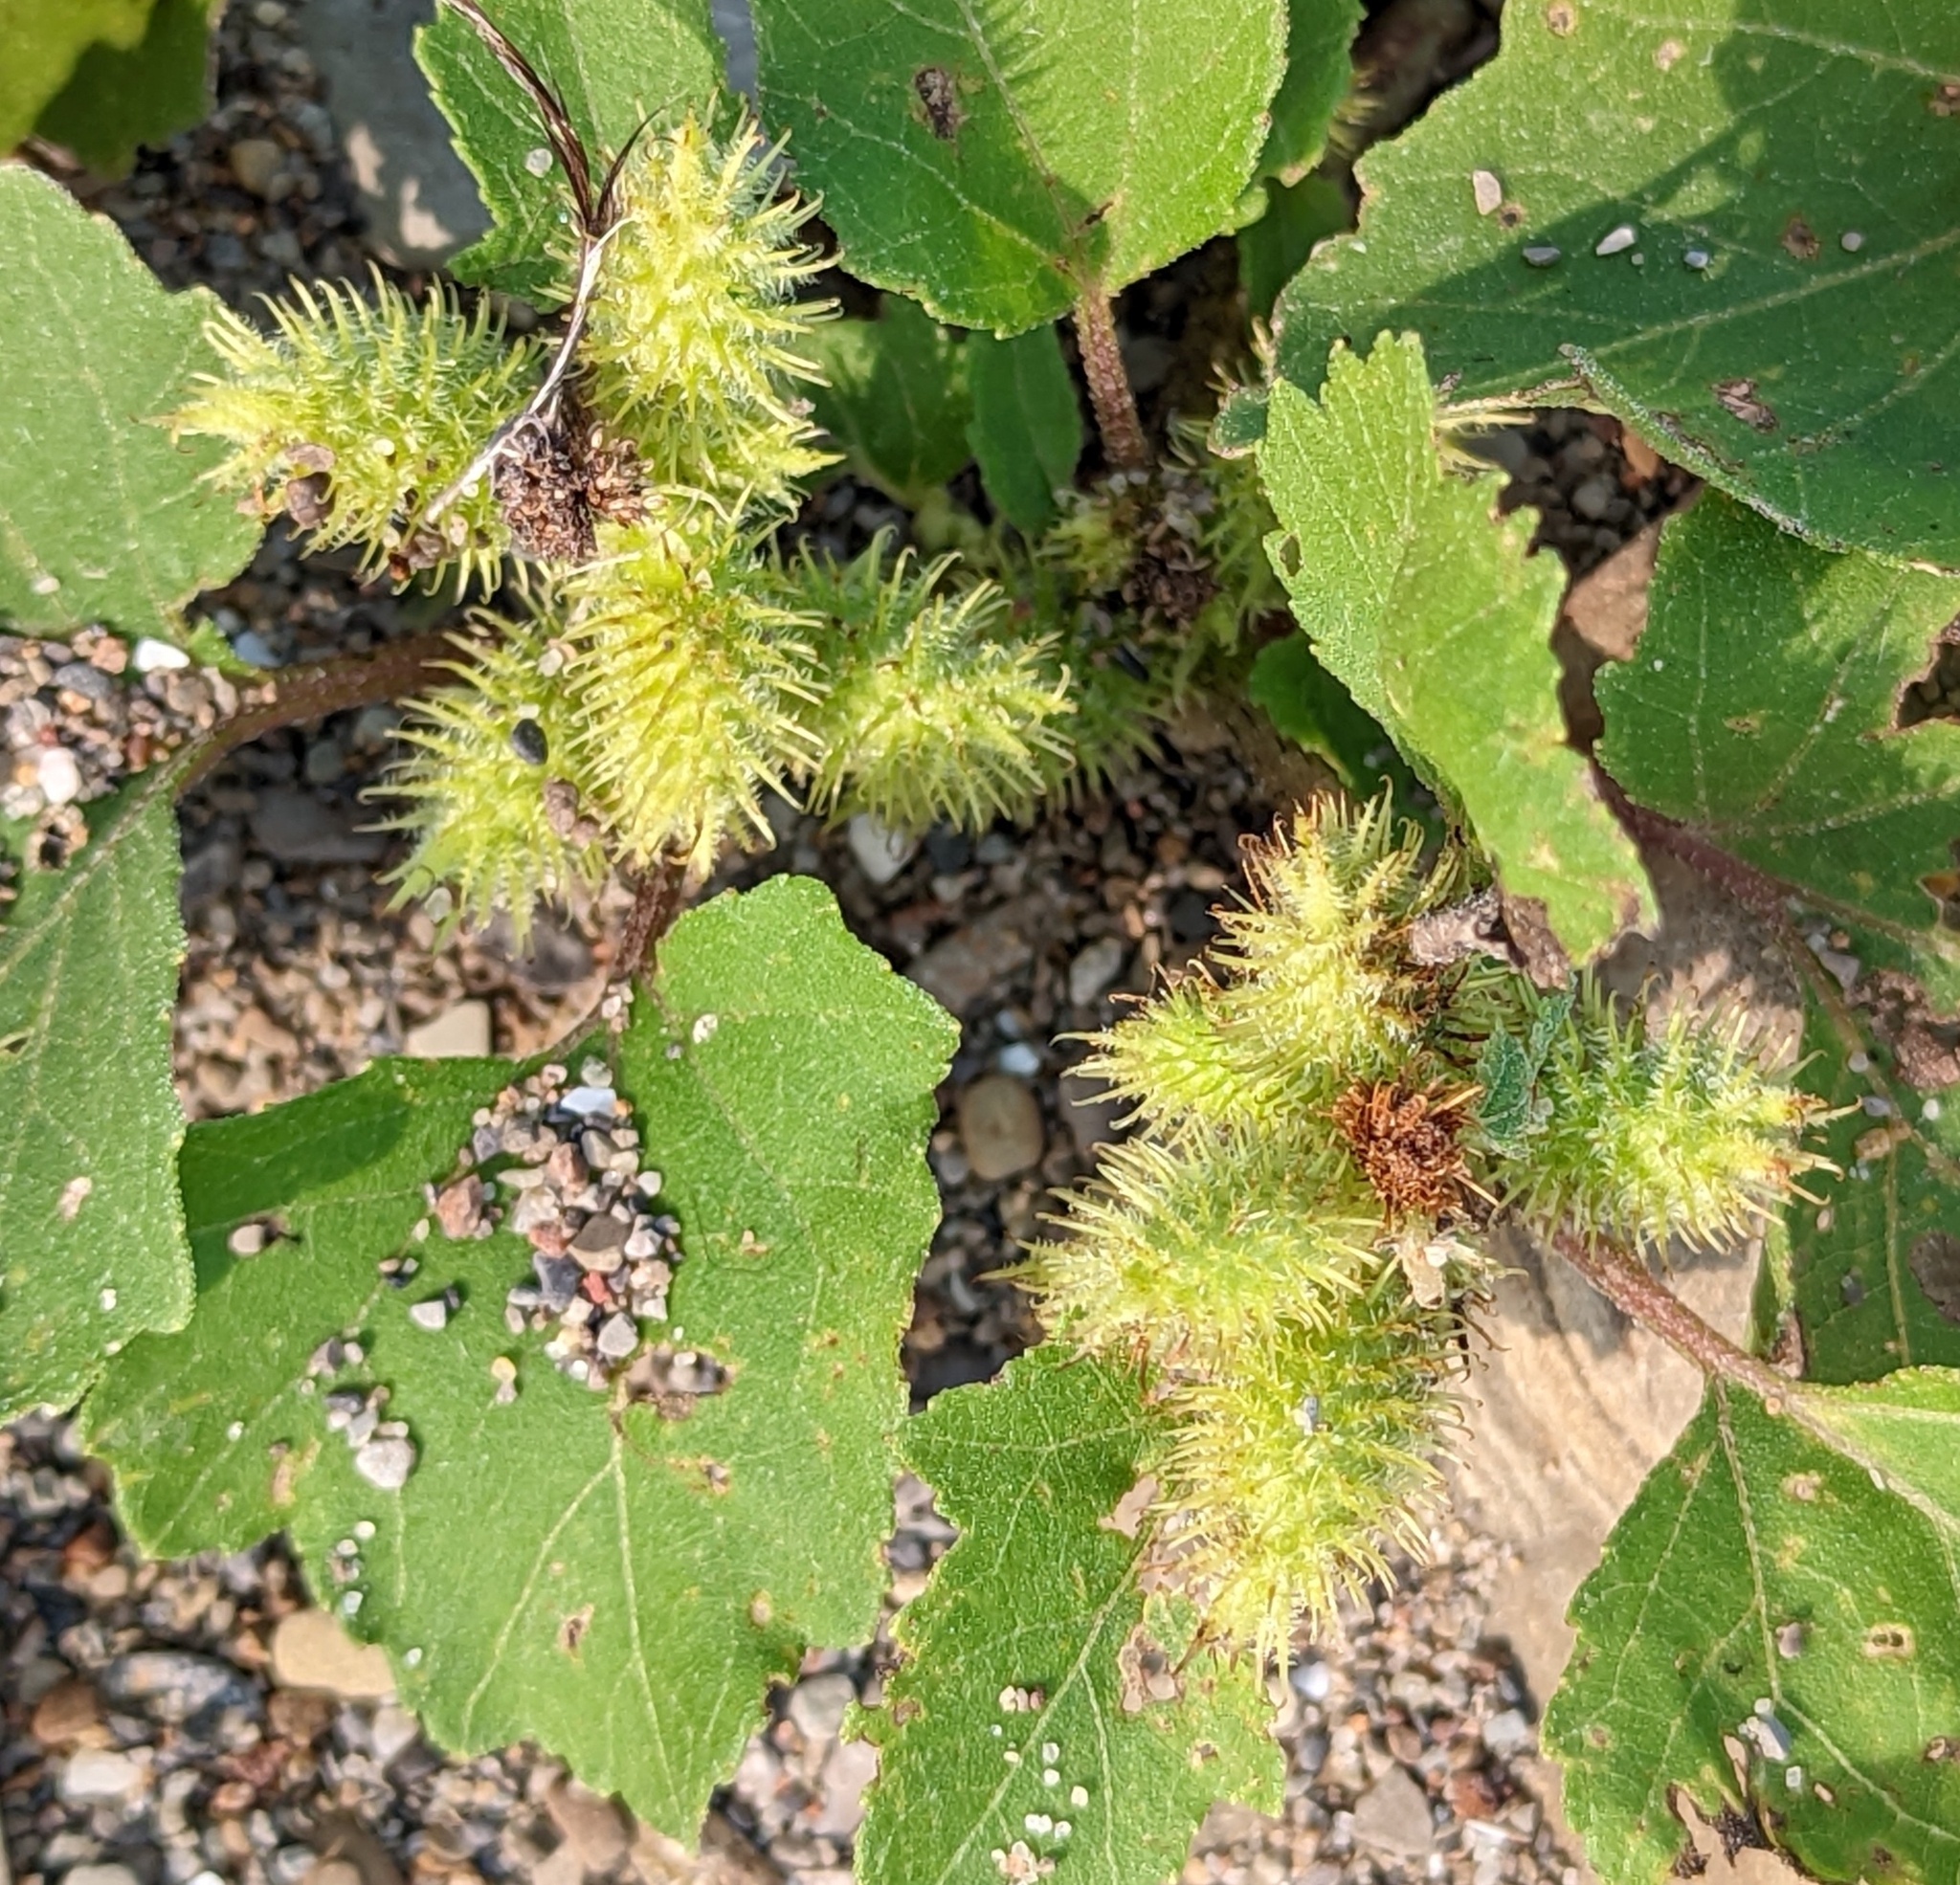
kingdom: Plantae
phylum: Tracheophyta
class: Magnoliopsida
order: Asterales
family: Asteraceae
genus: Xanthium
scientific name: Xanthium strumarium
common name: Rough cocklebur
